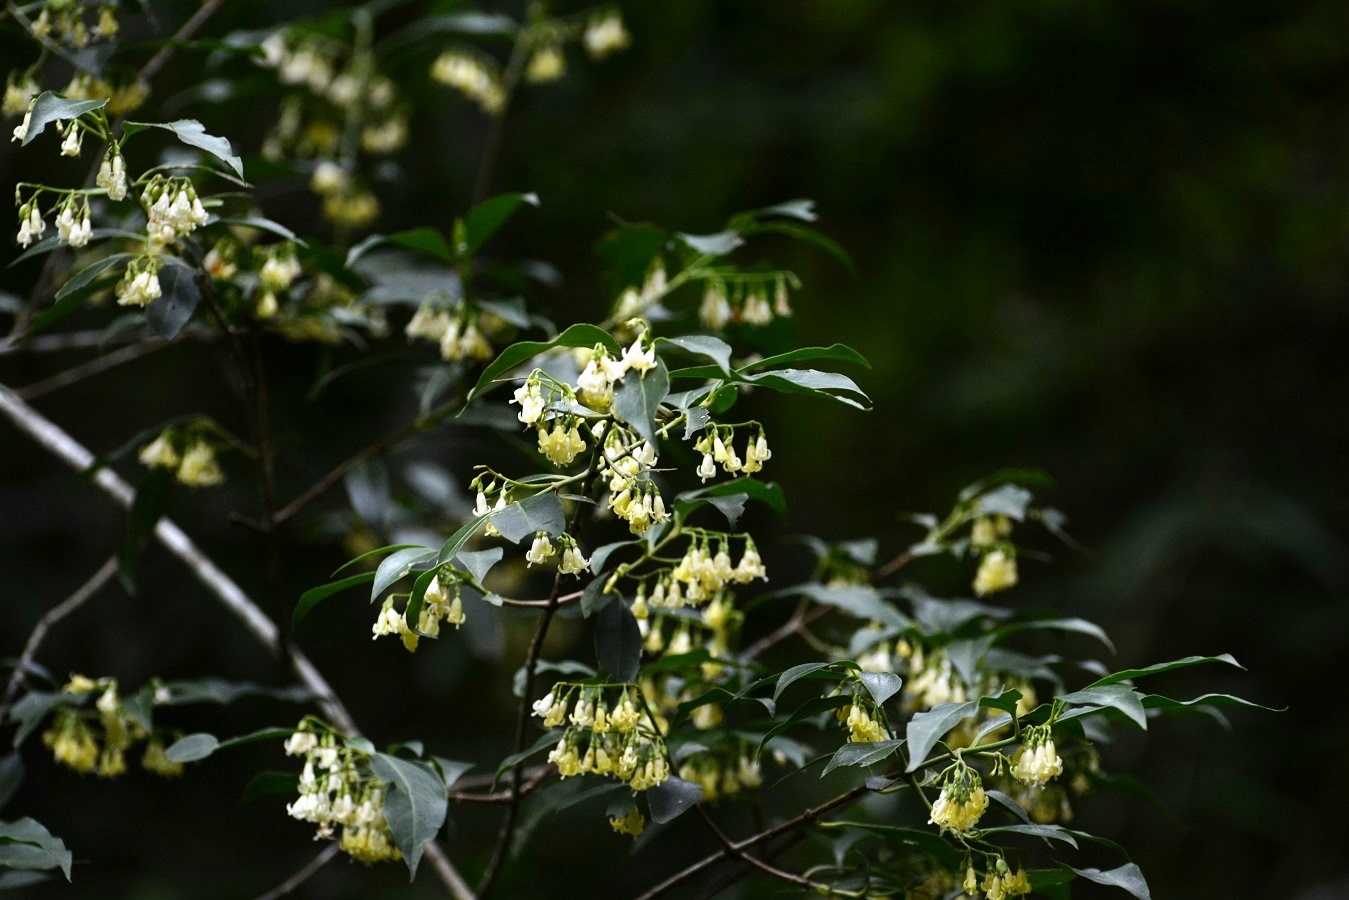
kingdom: Plantae
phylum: Tracheophyta
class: Magnoliopsida
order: Gentianales
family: Rubiaceae
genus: Chiococca
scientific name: Chiococca alba
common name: Snowberry
